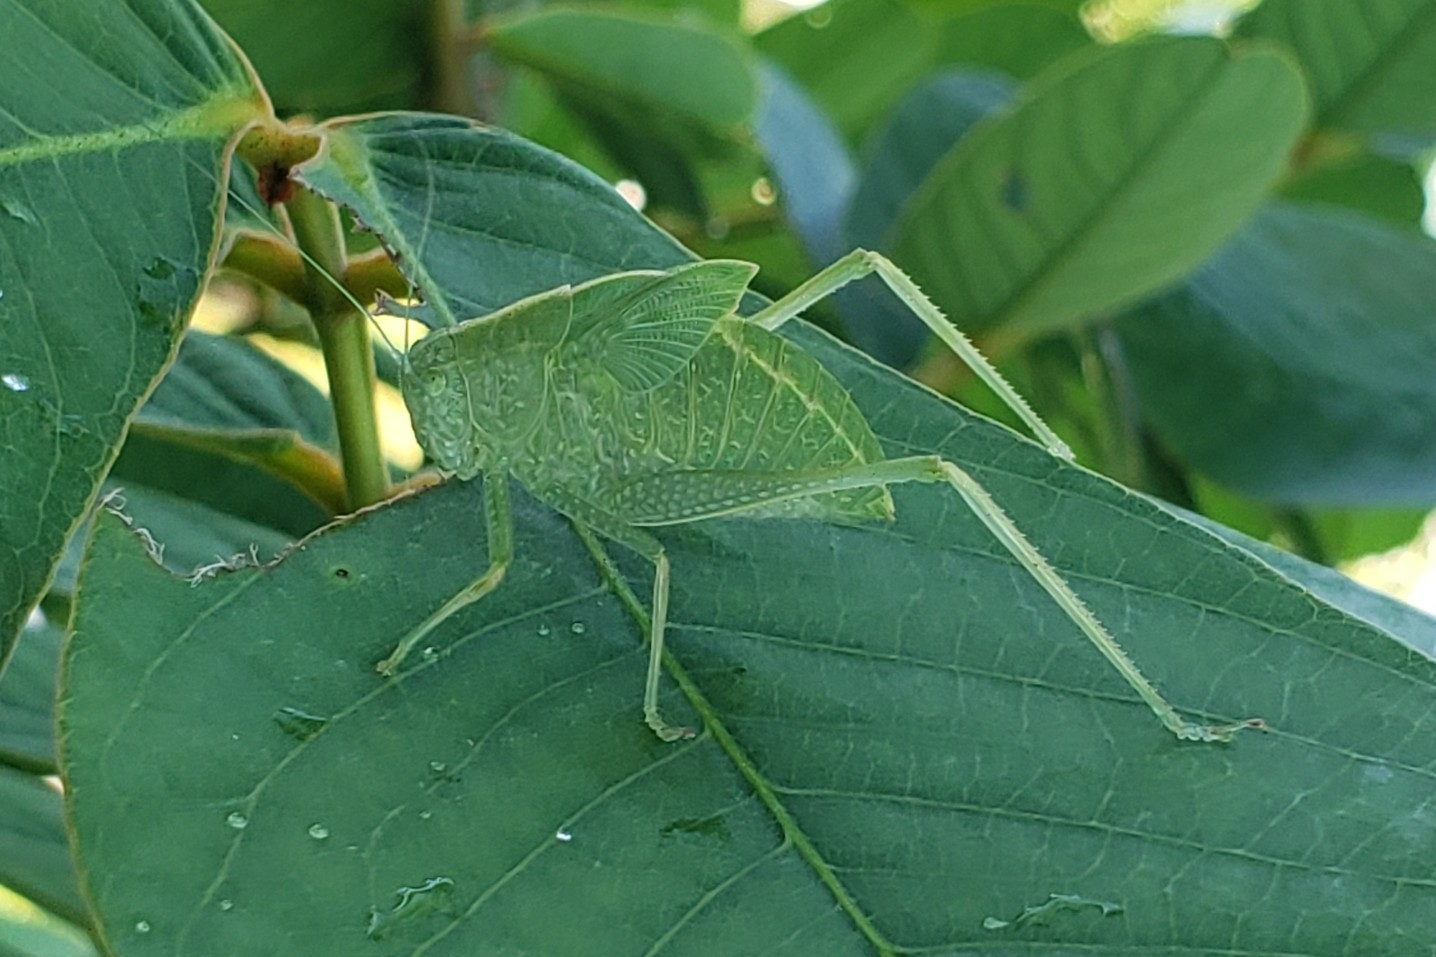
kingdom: Animalia
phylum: Arthropoda
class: Insecta
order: Orthoptera
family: Tettigoniidae
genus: Microcentrum
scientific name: Microcentrum rhombifolium
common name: Broad-winged katydid
